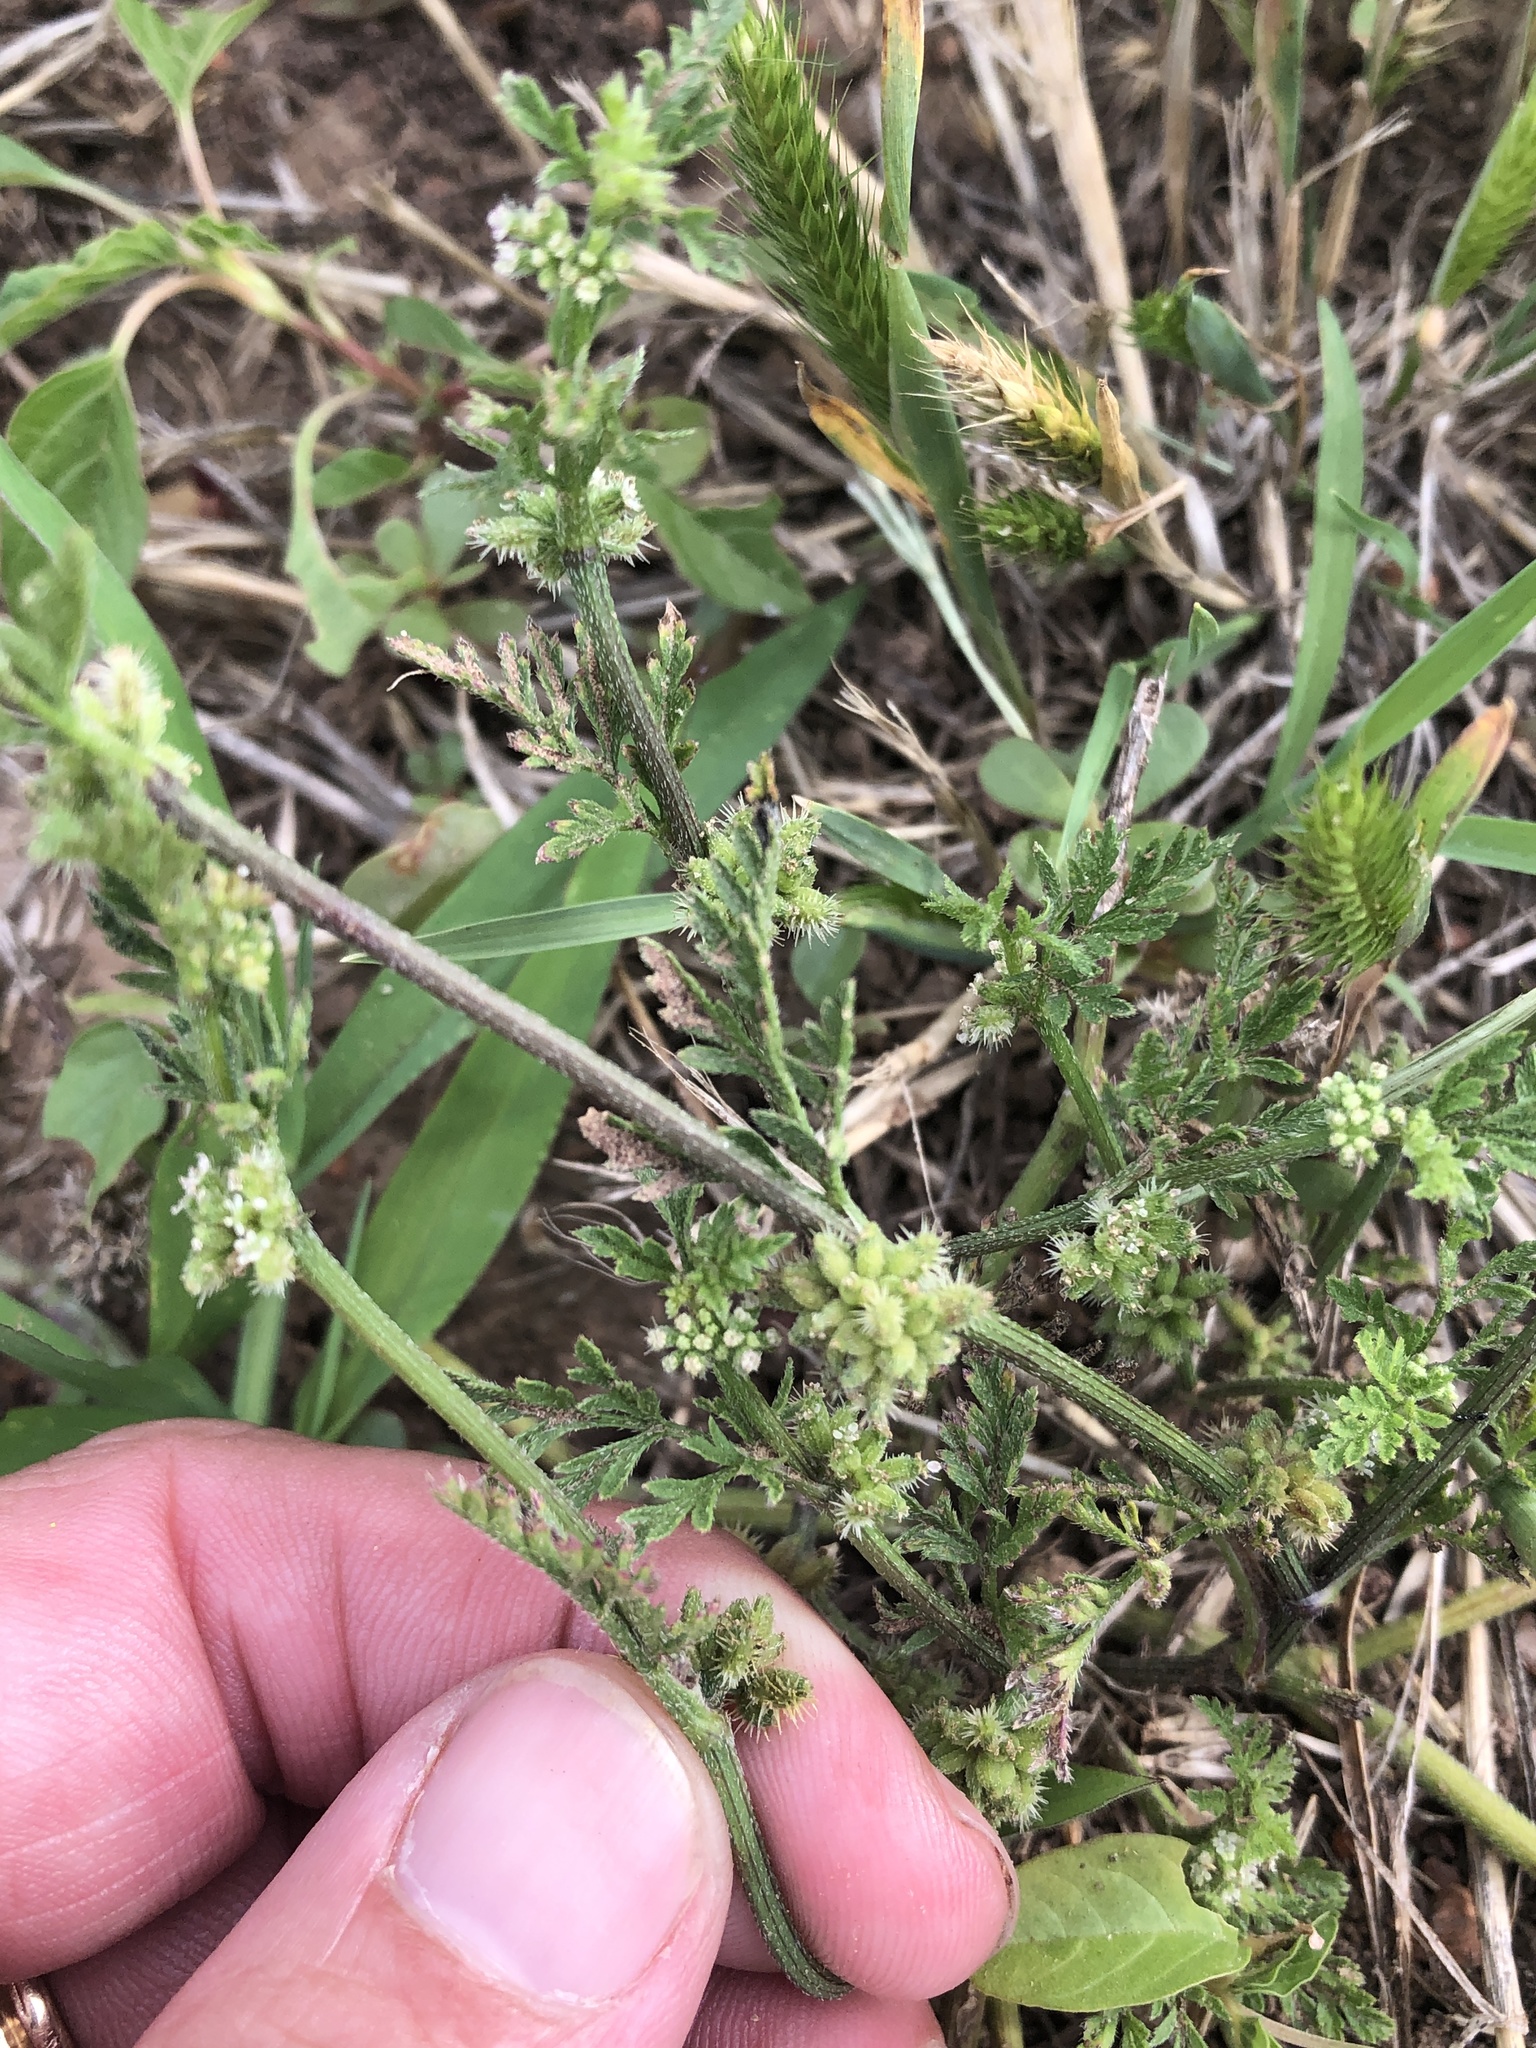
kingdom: Plantae
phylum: Tracheophyta
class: Magnoliopsida
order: Apiales
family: Apiaceae
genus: Torilis
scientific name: Torilis nodosa
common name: Knotted hedge-parsley
